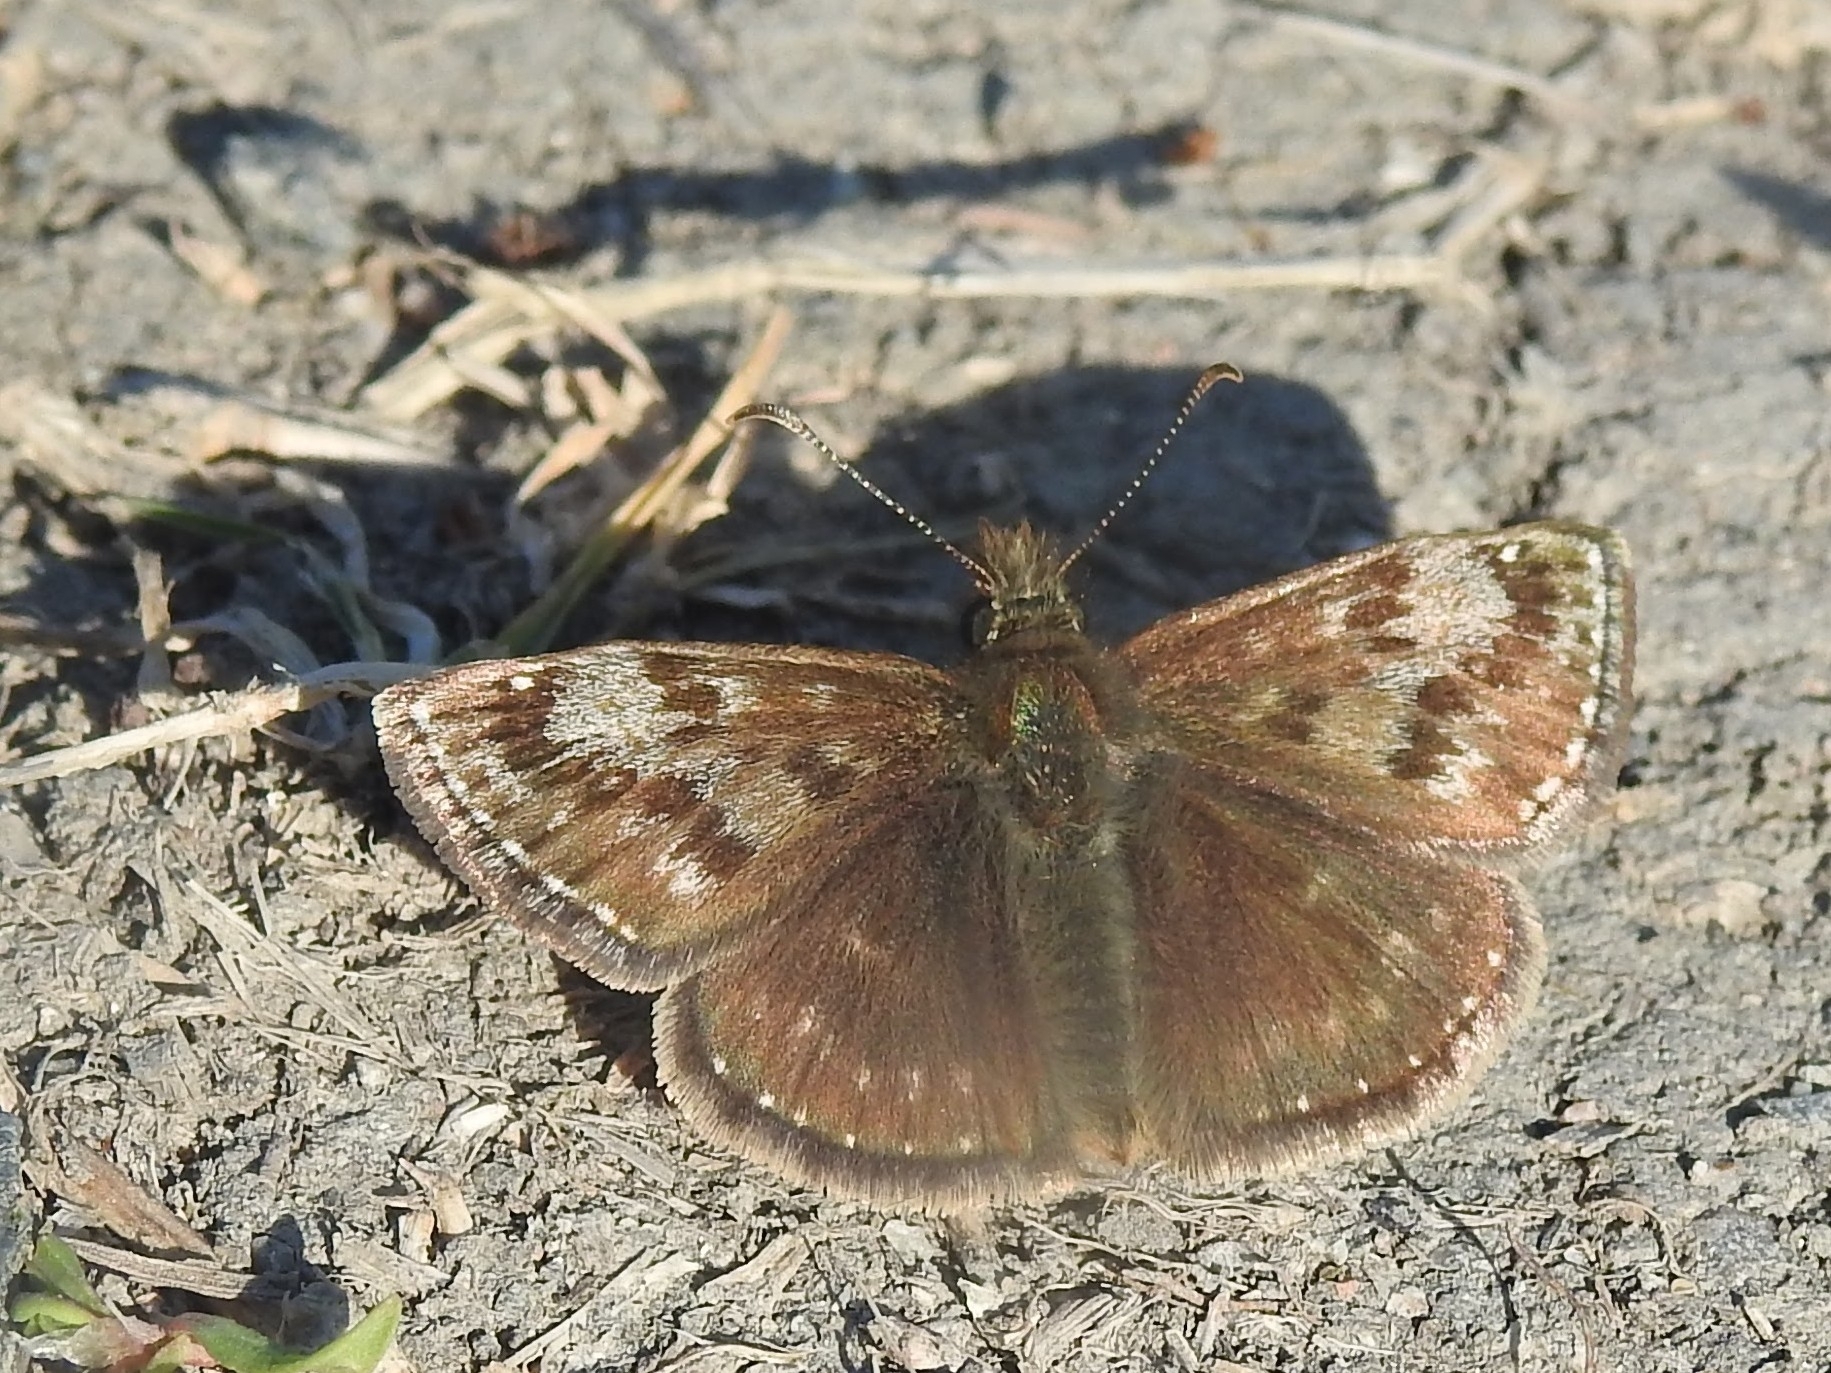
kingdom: Animalia
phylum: Arthropoda
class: Insecta
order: Lepidoptera
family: Hesperiidae
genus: Erynnis
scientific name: Erynnis tages
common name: Dingy skipper
